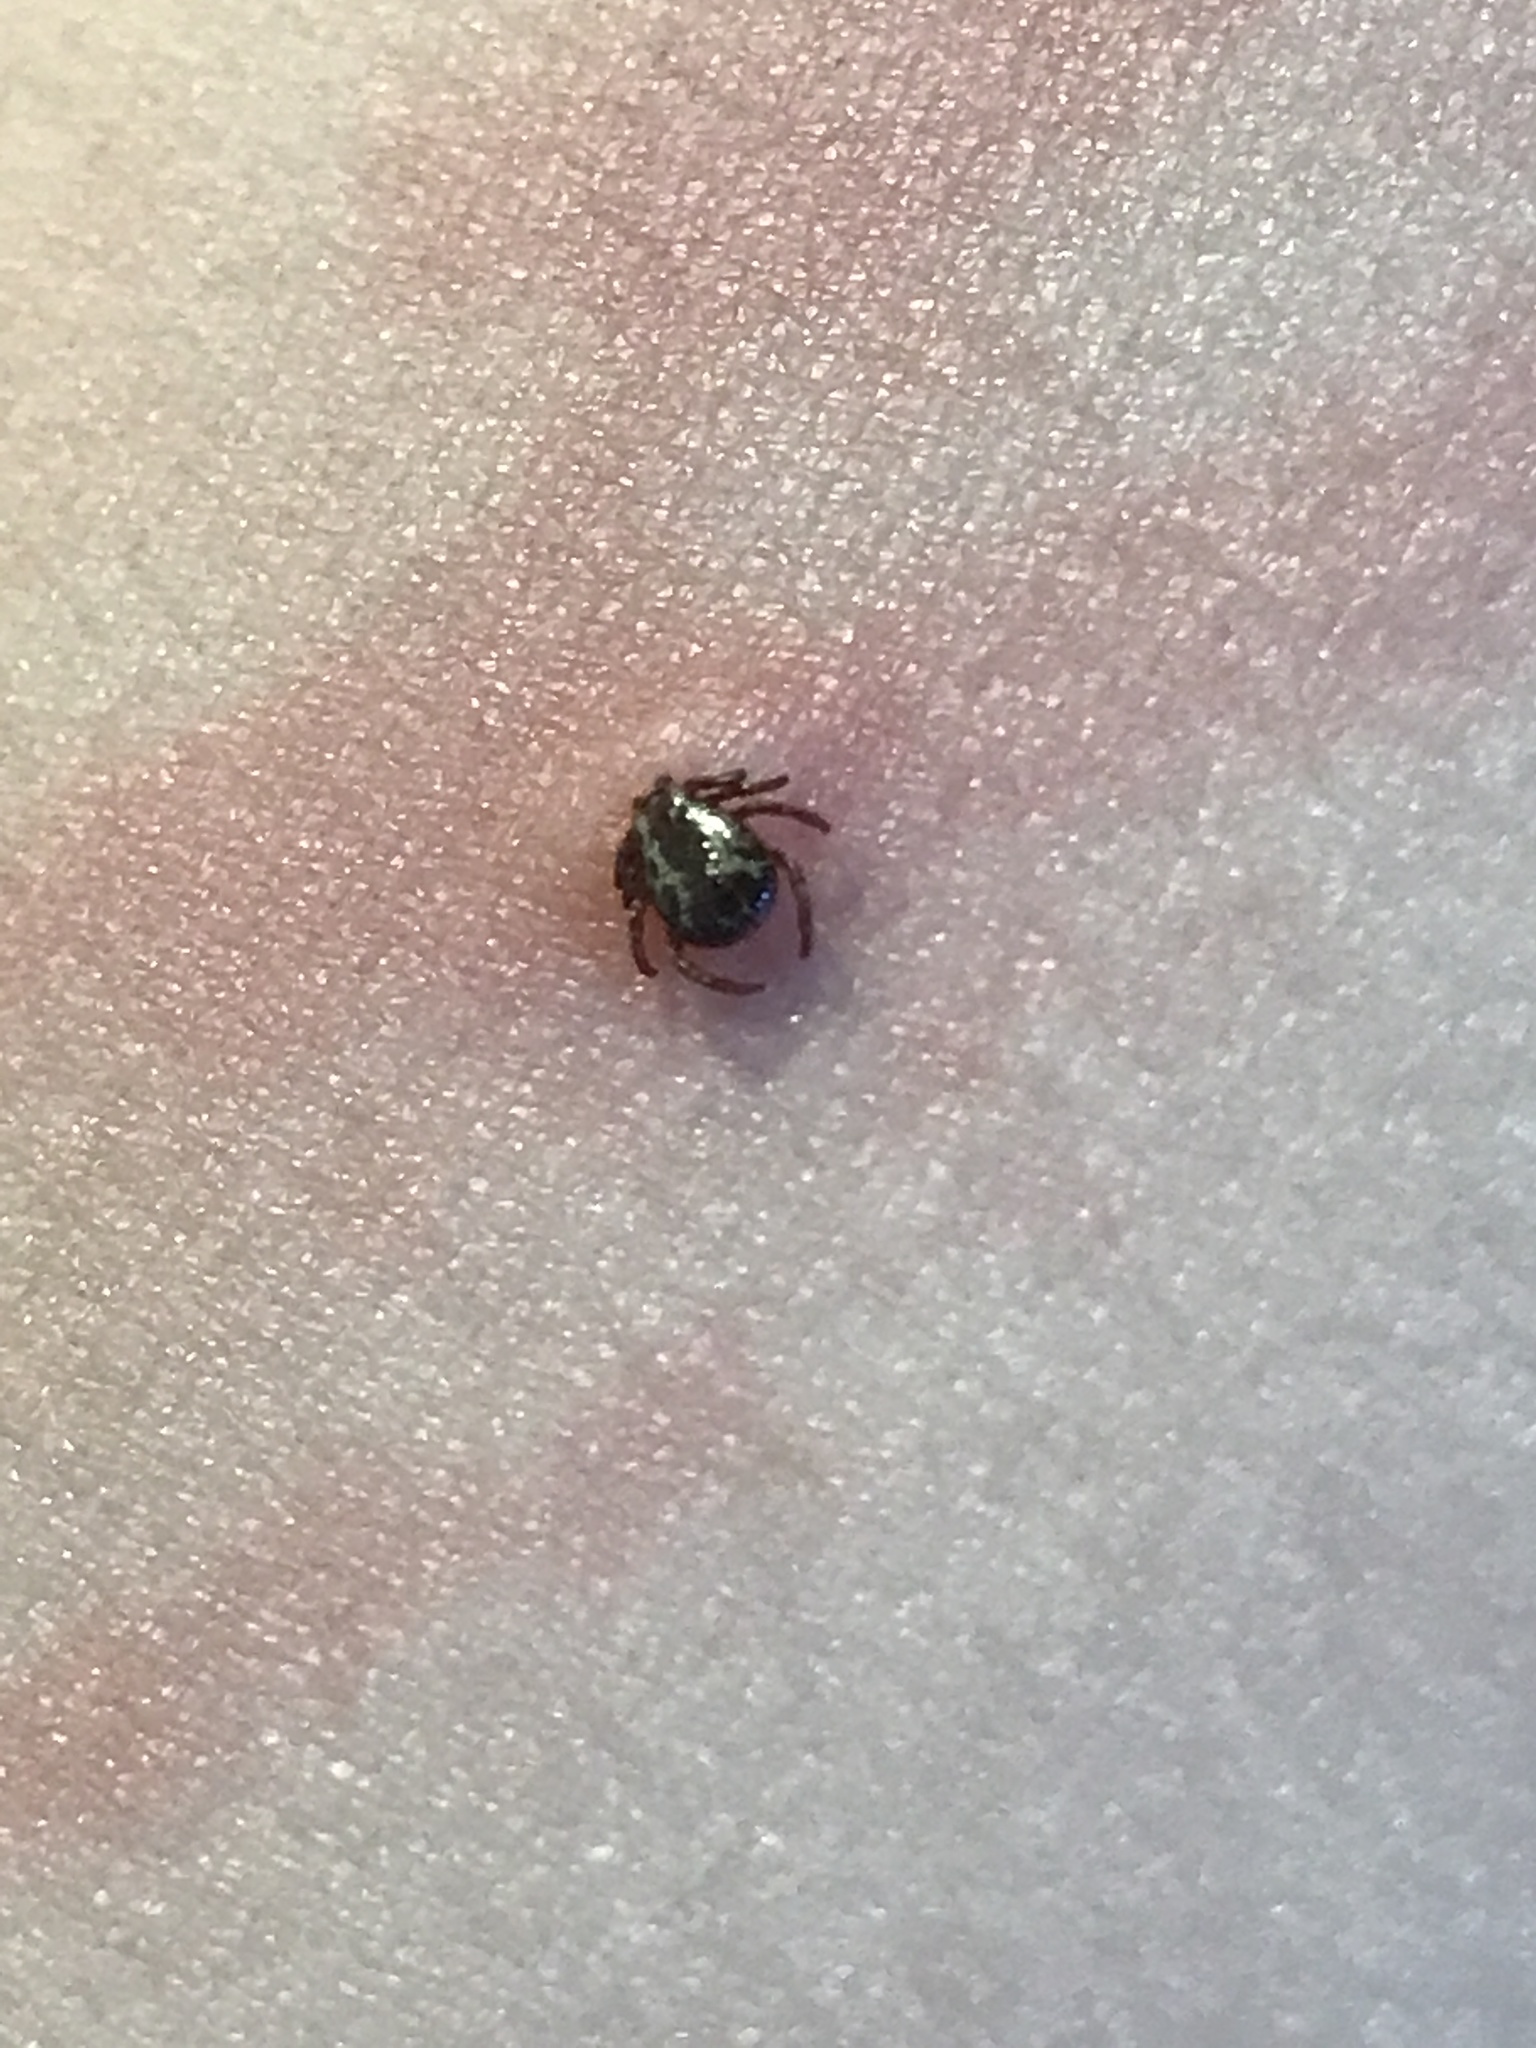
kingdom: Animalia
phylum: Arthropoda
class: Arachnida
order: Ixodida
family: Ixodidae
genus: Dermacentor
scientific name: Dermacentor variabilis
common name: American dog tick
